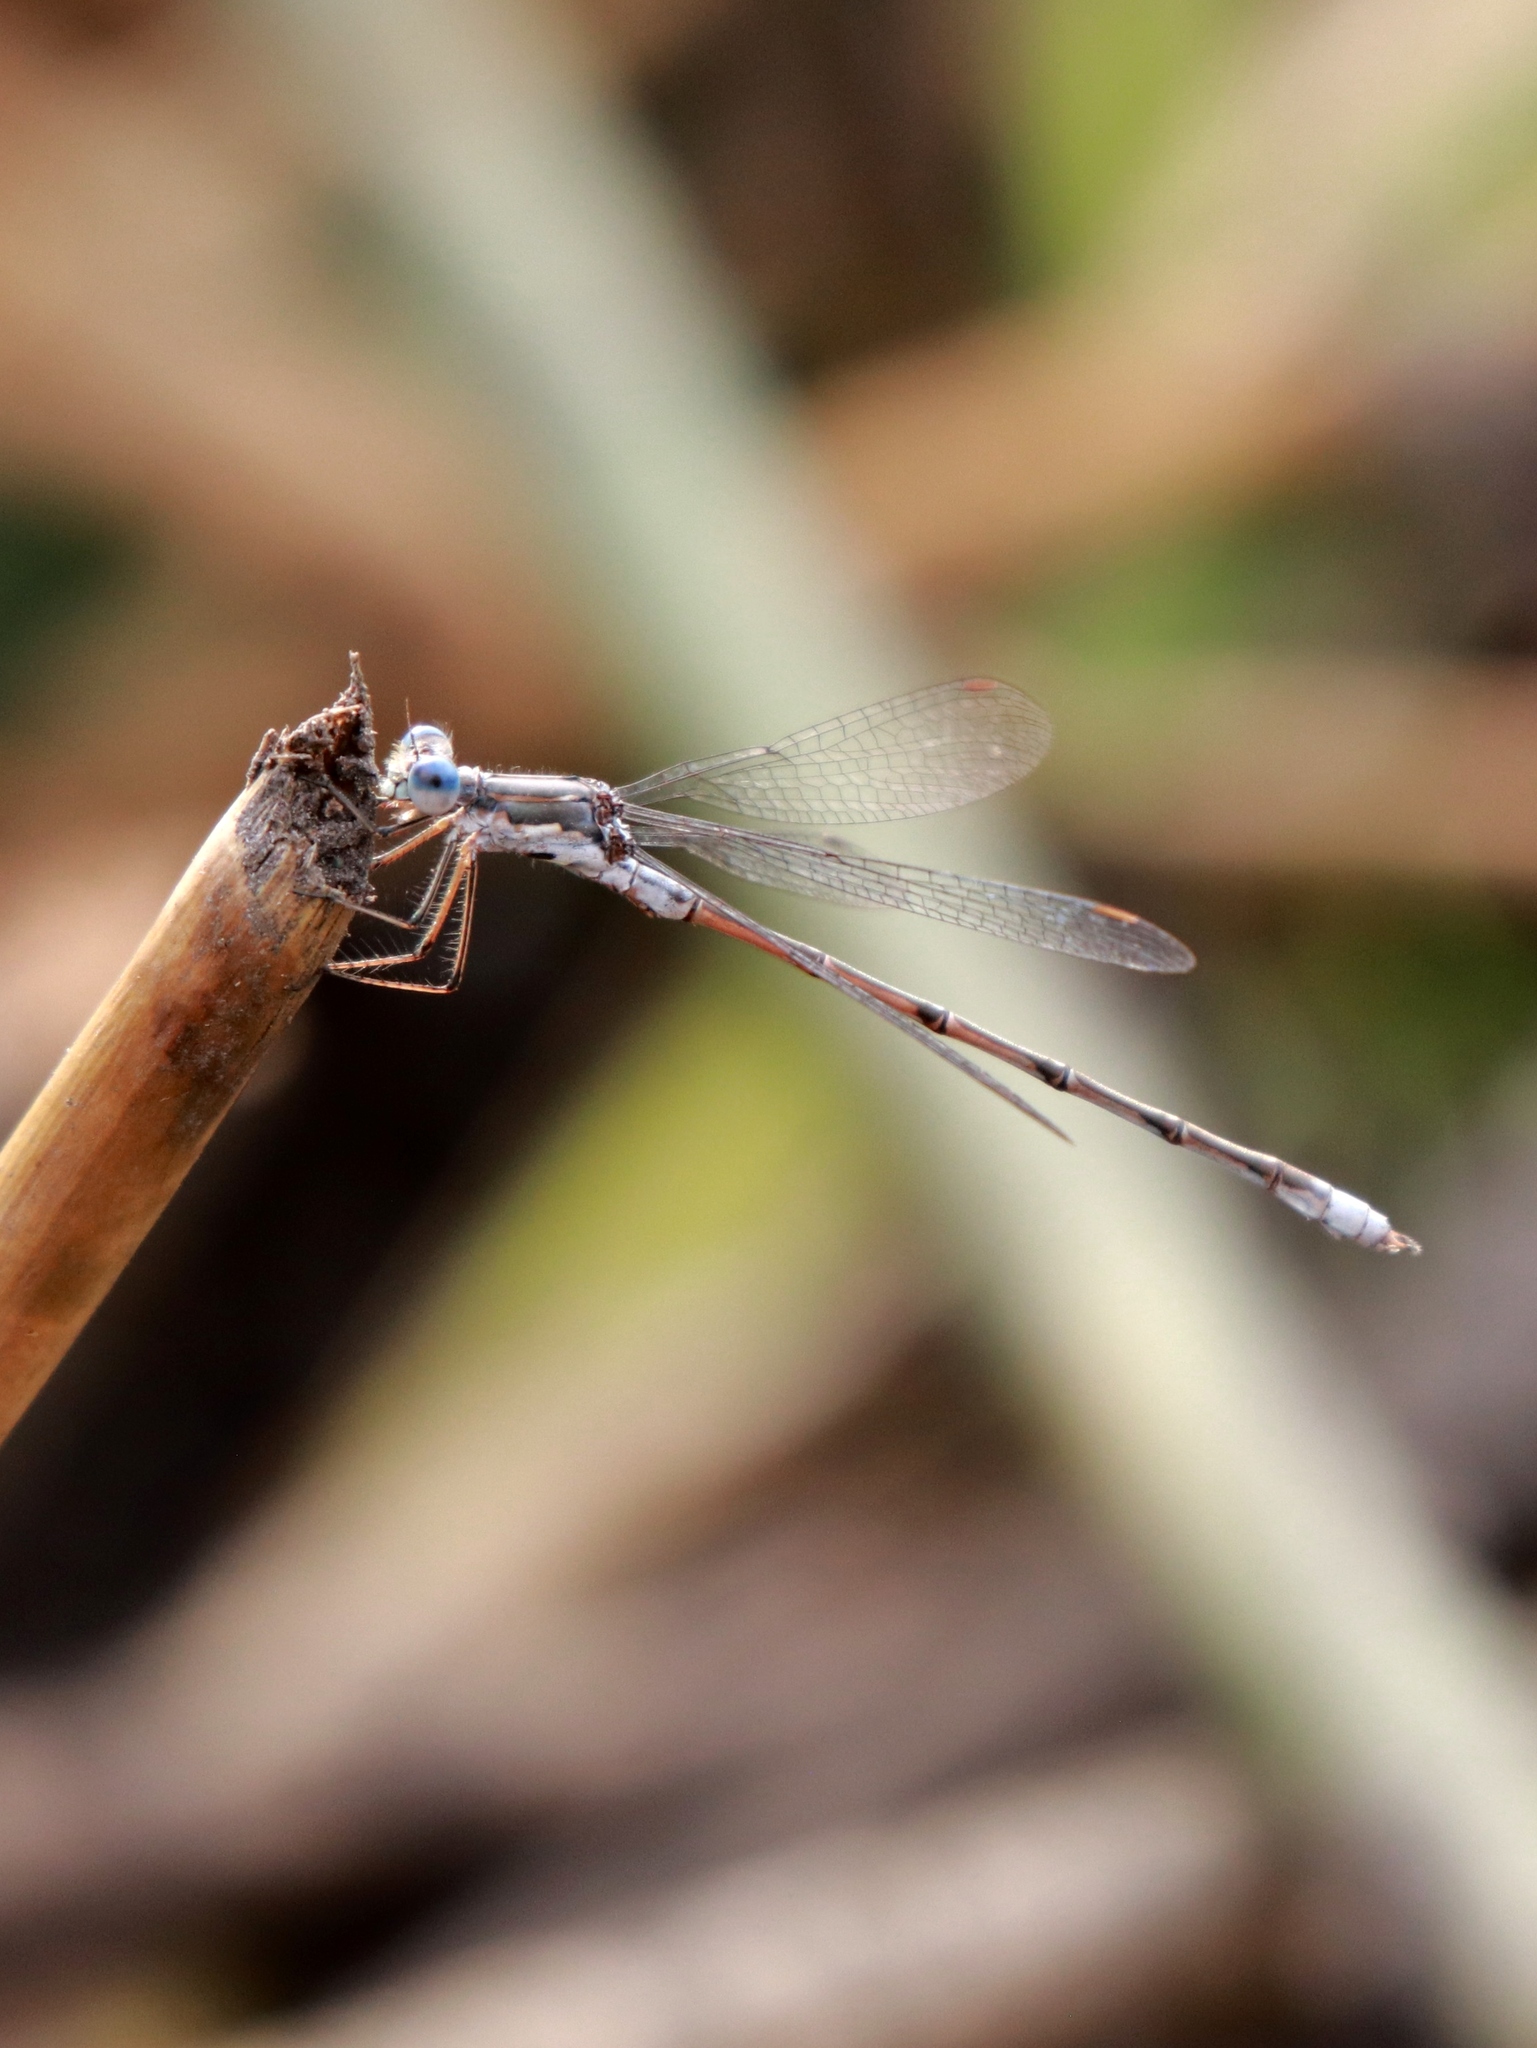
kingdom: Animalia
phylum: Arthropoda
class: Insecta
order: Odonata
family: Lestidae
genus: Lestes
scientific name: Lestes congener
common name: Spotted spreadwing
